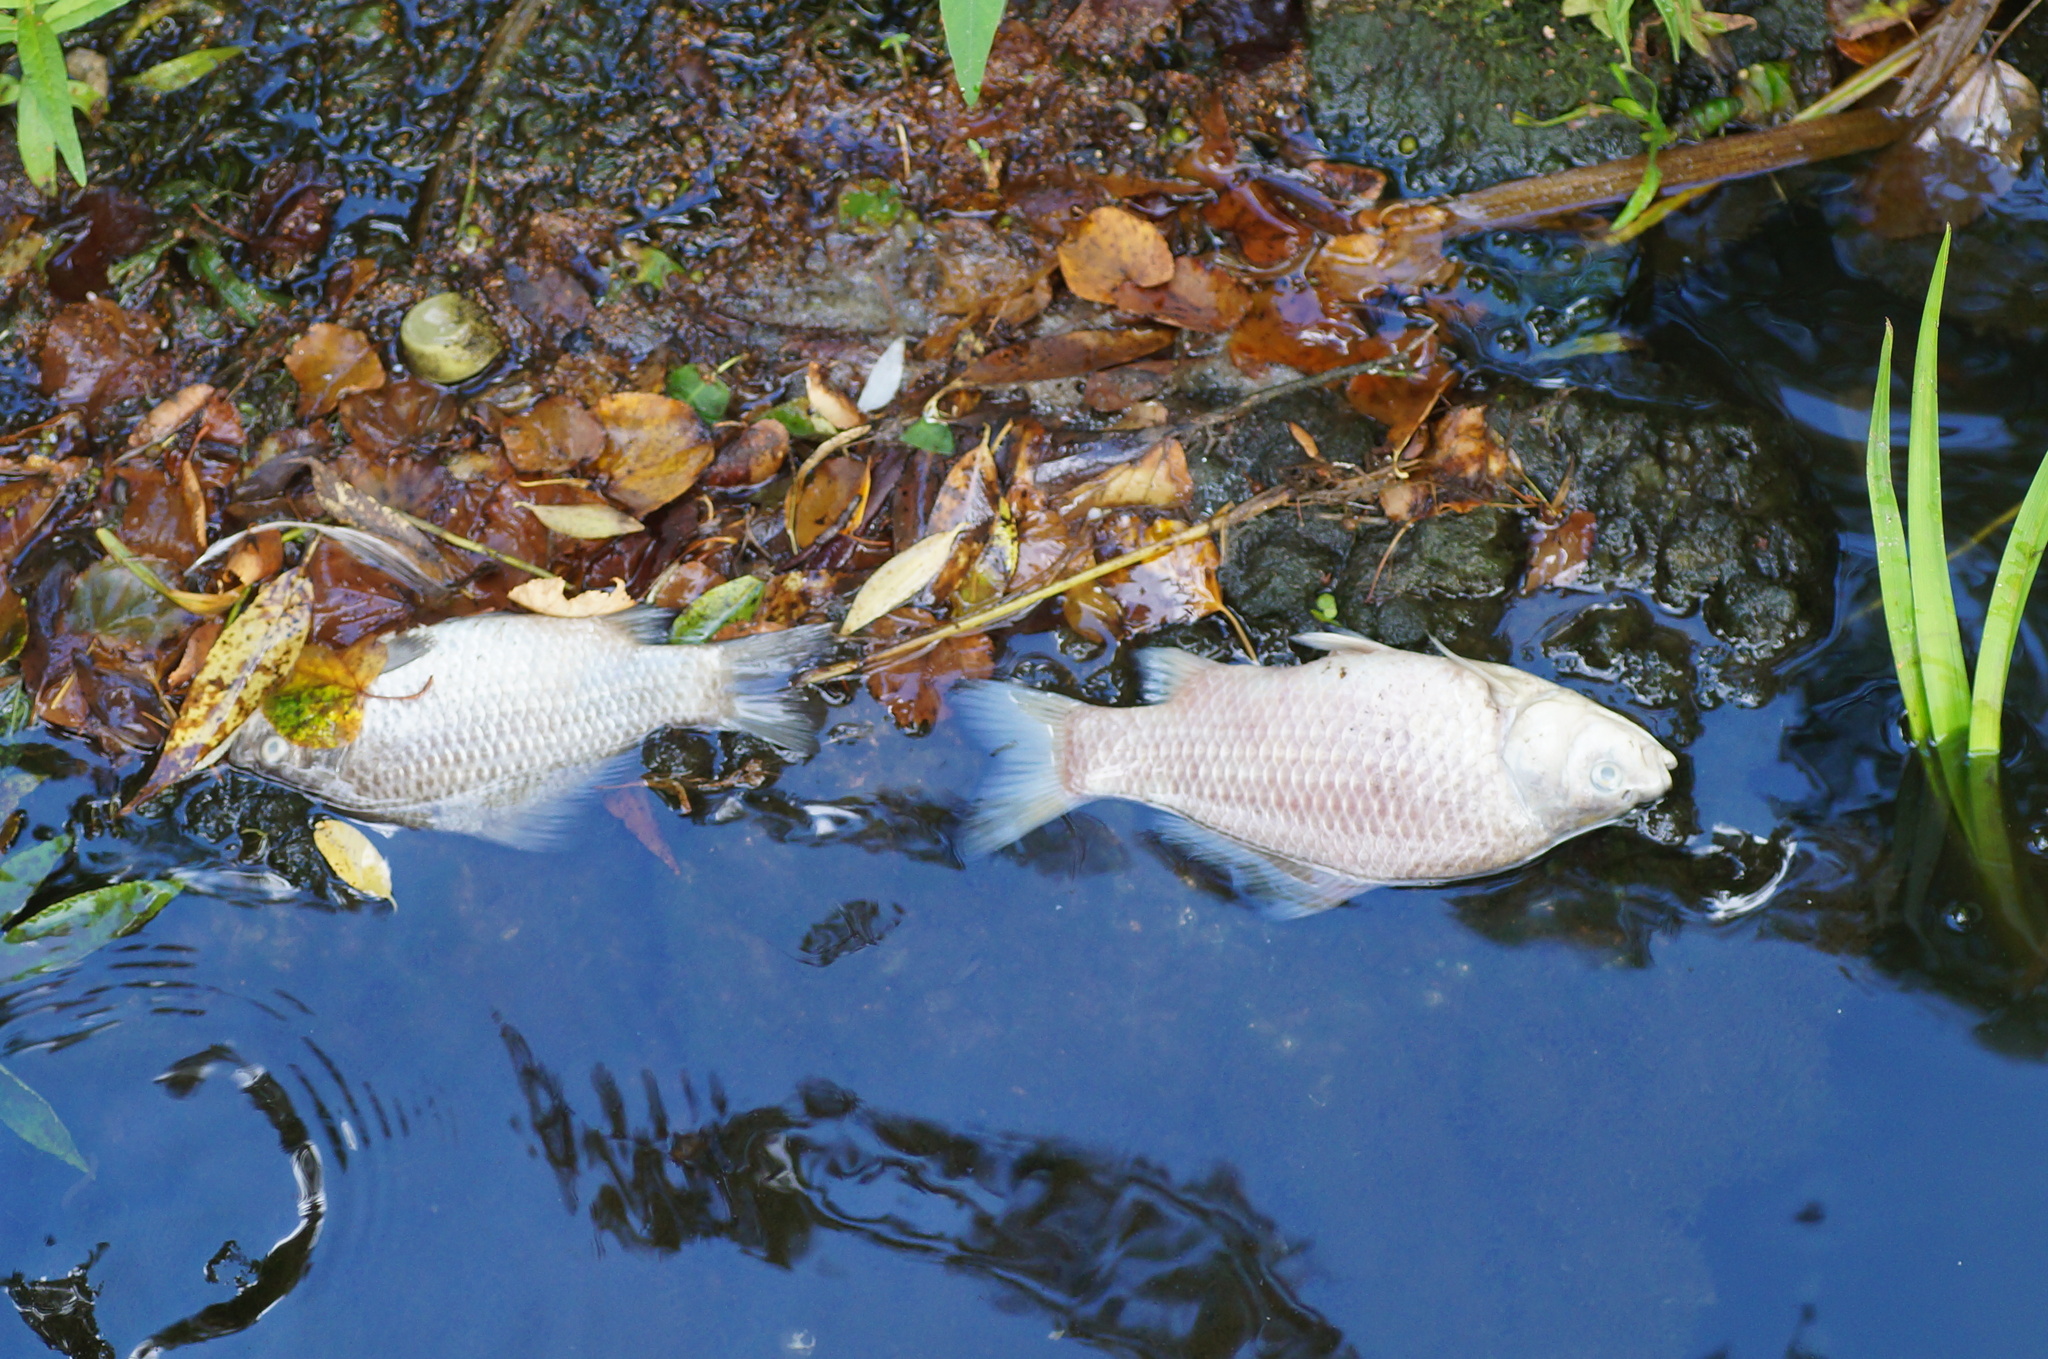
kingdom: Animalia
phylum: Chordata
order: Cypriniformes
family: Cyprinidae
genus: Carassius
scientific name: Carassius gibelio
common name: Prussian carp
